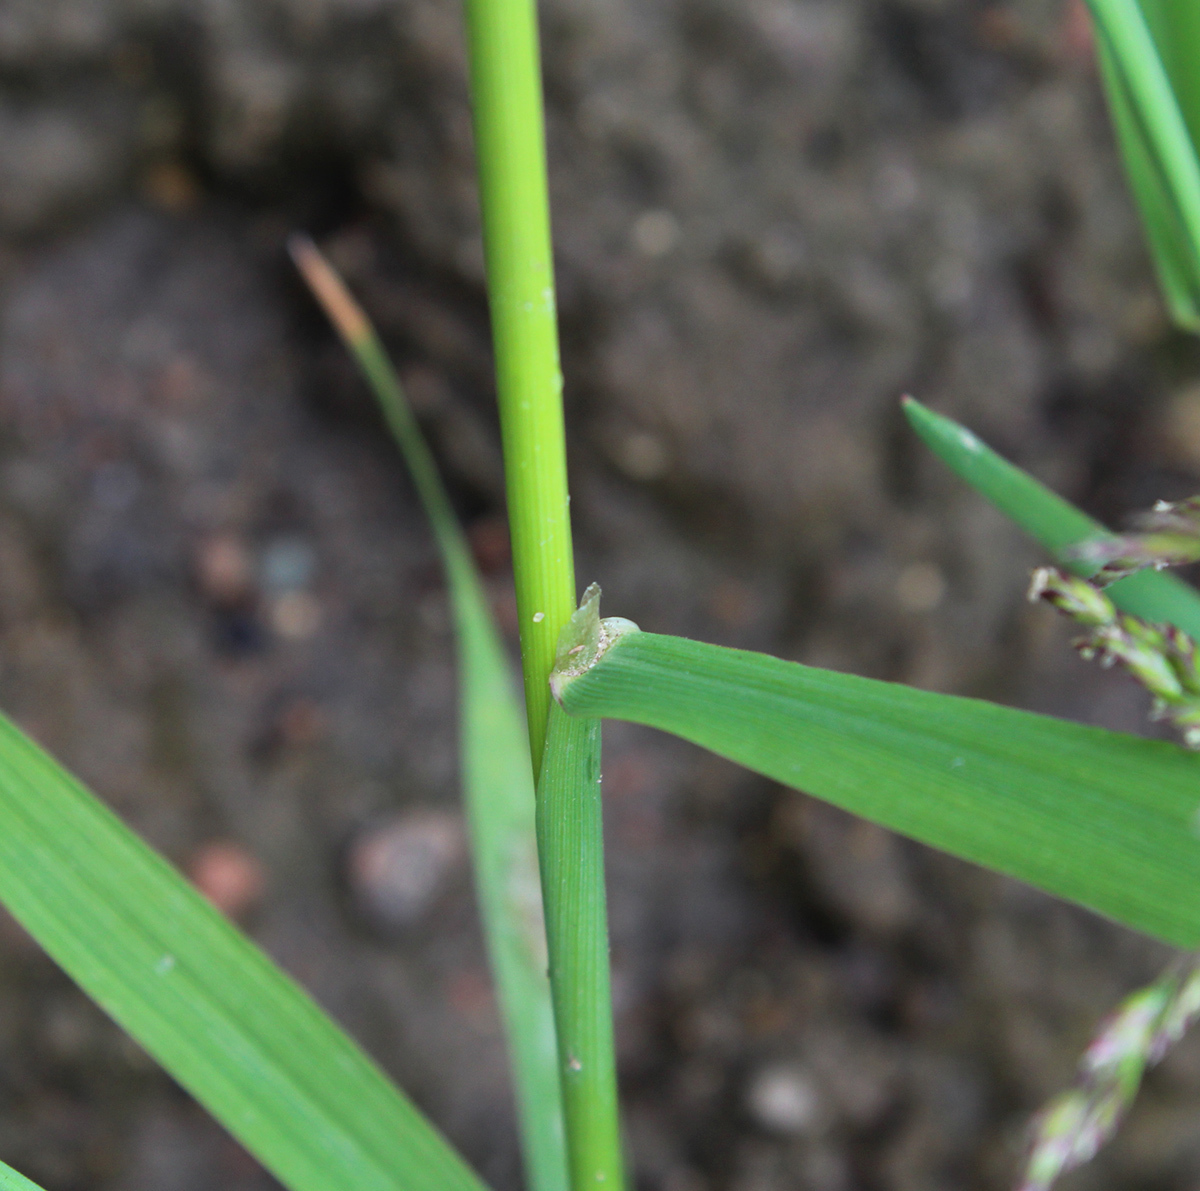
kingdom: Plantae
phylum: Tracheophyta
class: Liliopsida
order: Poales
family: Poaceae
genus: Agrostis
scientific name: Agrostis gigantea
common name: Black bent
